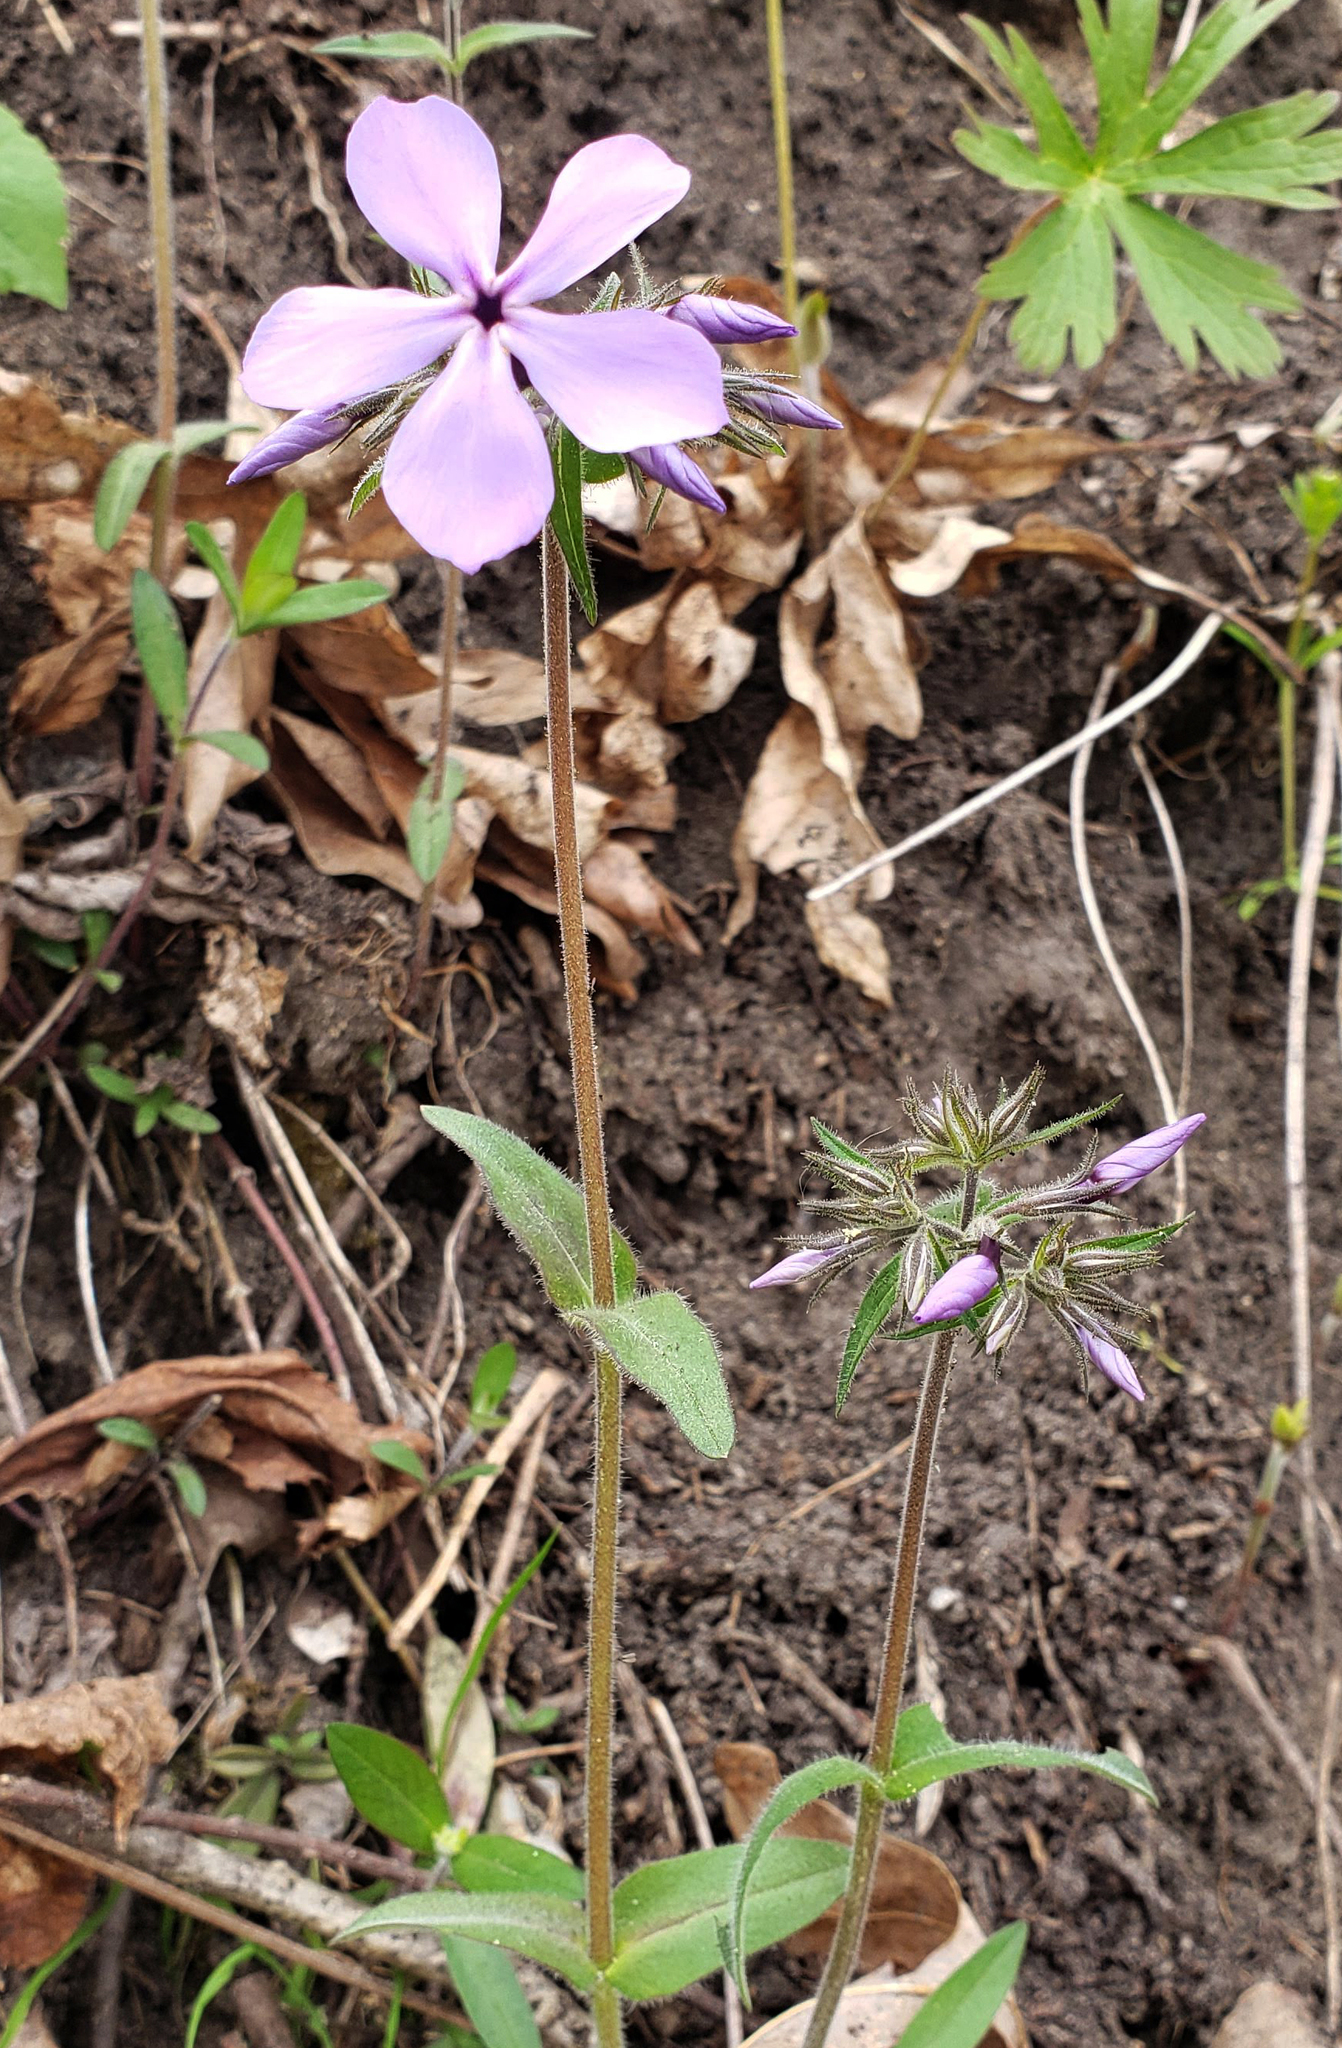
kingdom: Plantae
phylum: Tracheophyta
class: Magnoliopsida
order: Ericales
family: Polemoniaceae
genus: Phlox
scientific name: Phlox divaricata
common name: Blue phlox
